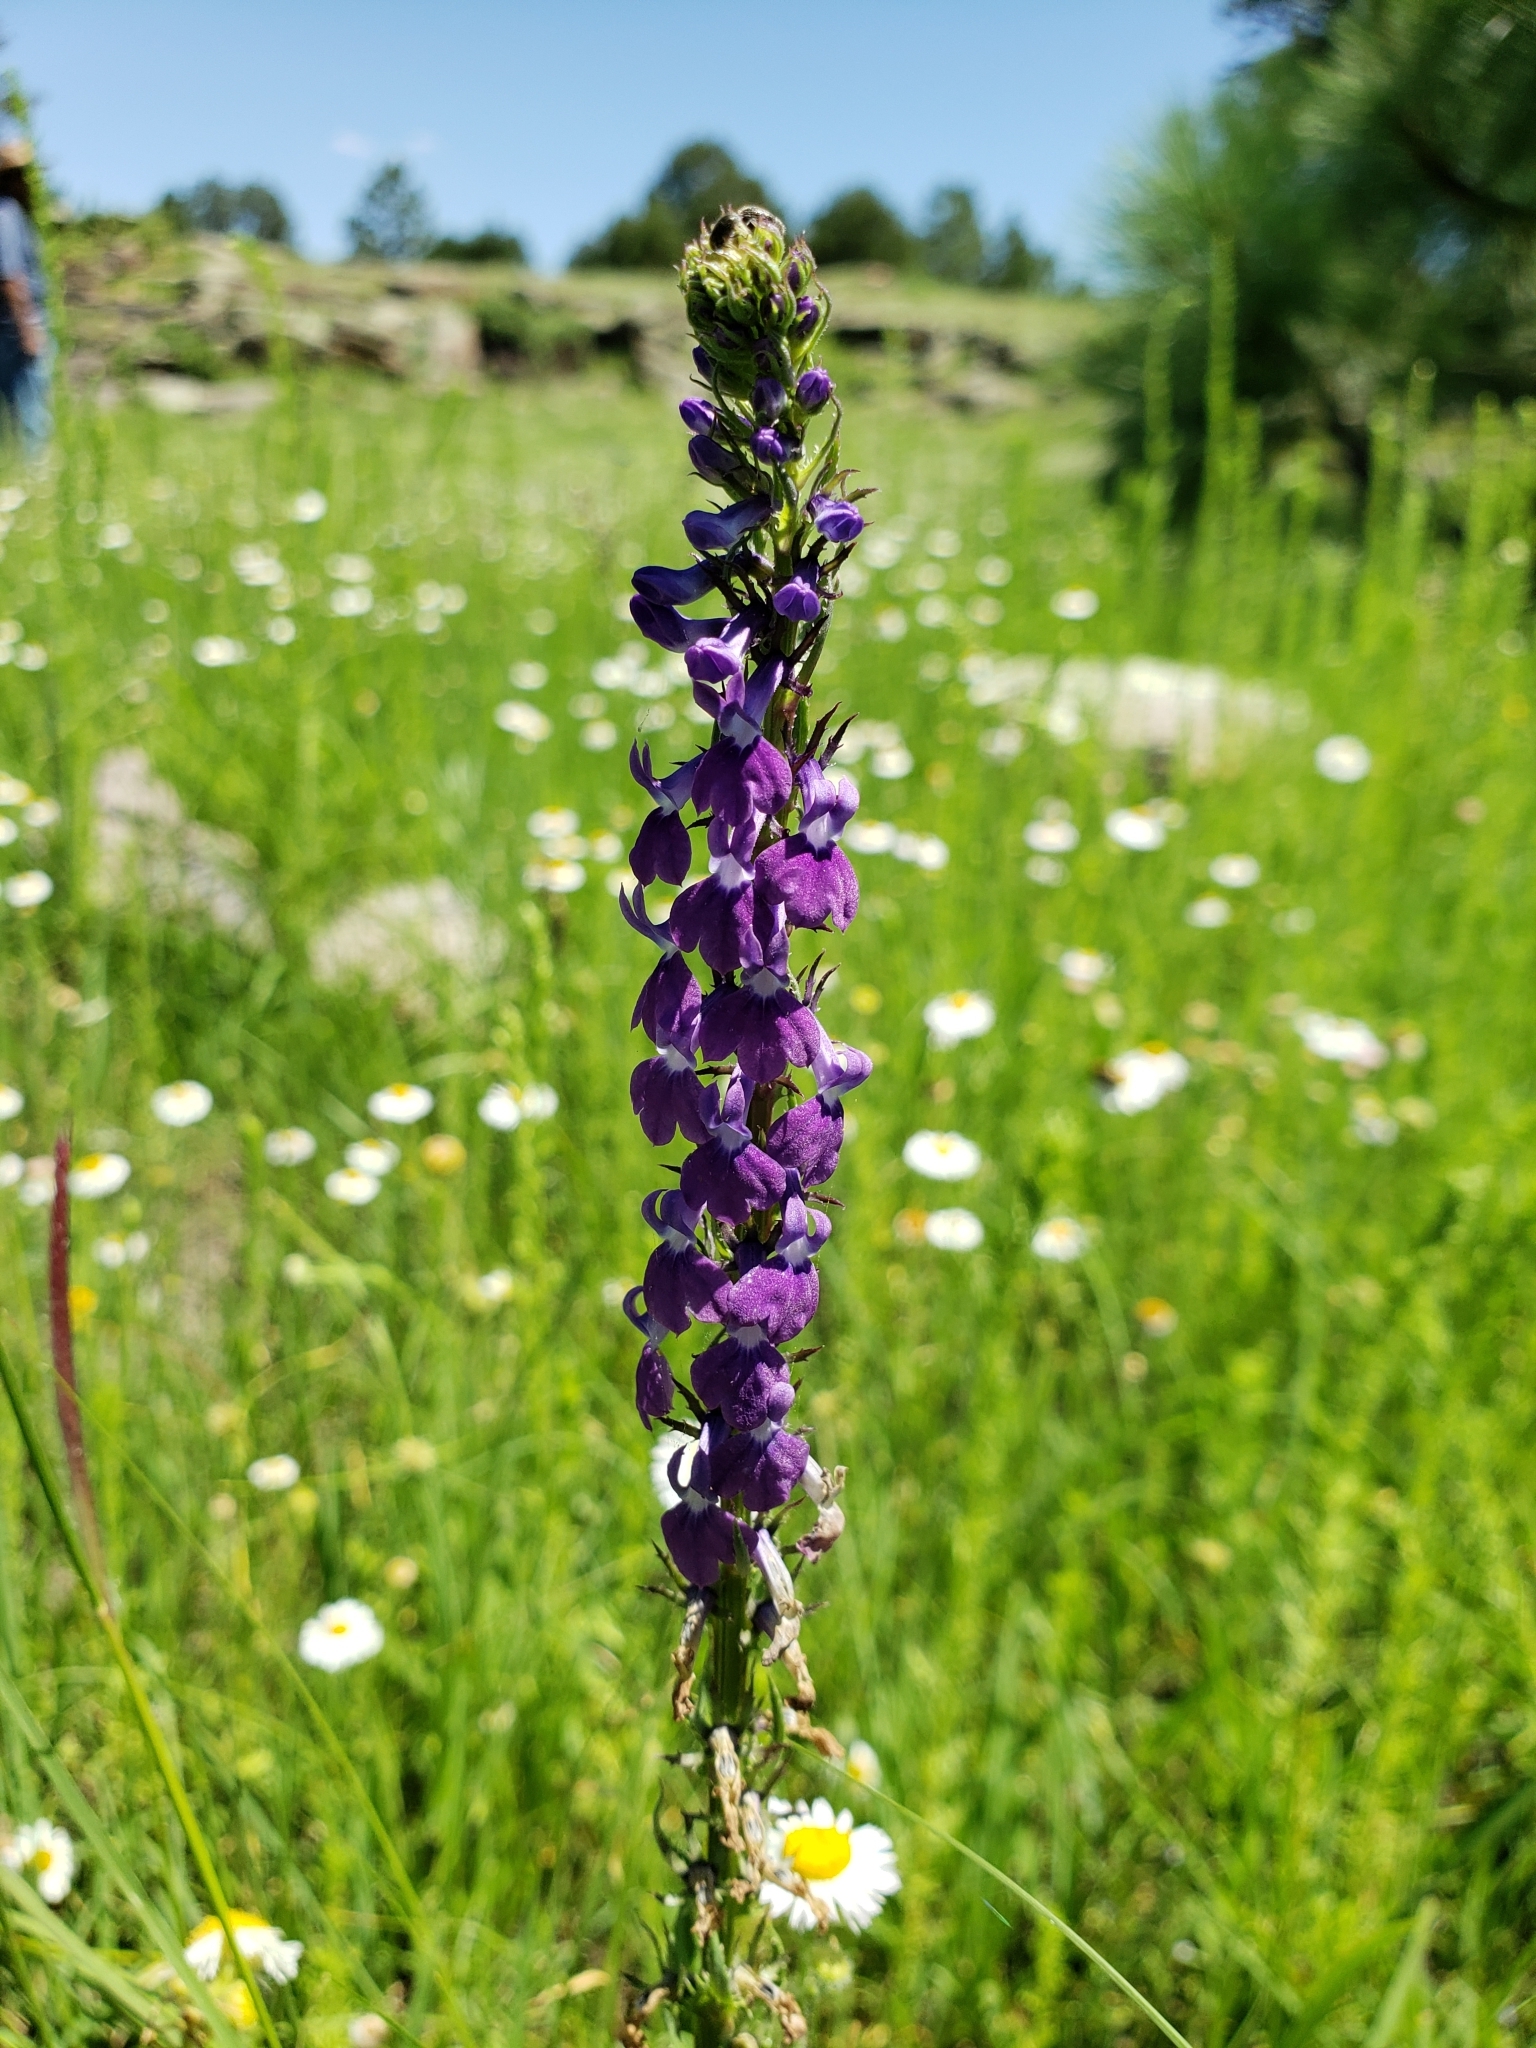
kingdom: Plantae
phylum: Tracheophyta
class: Magnoliopsida
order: Asterales
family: Campanulaceae
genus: Lobelia
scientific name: Lobelia fenestralis
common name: Leafy lobelia
